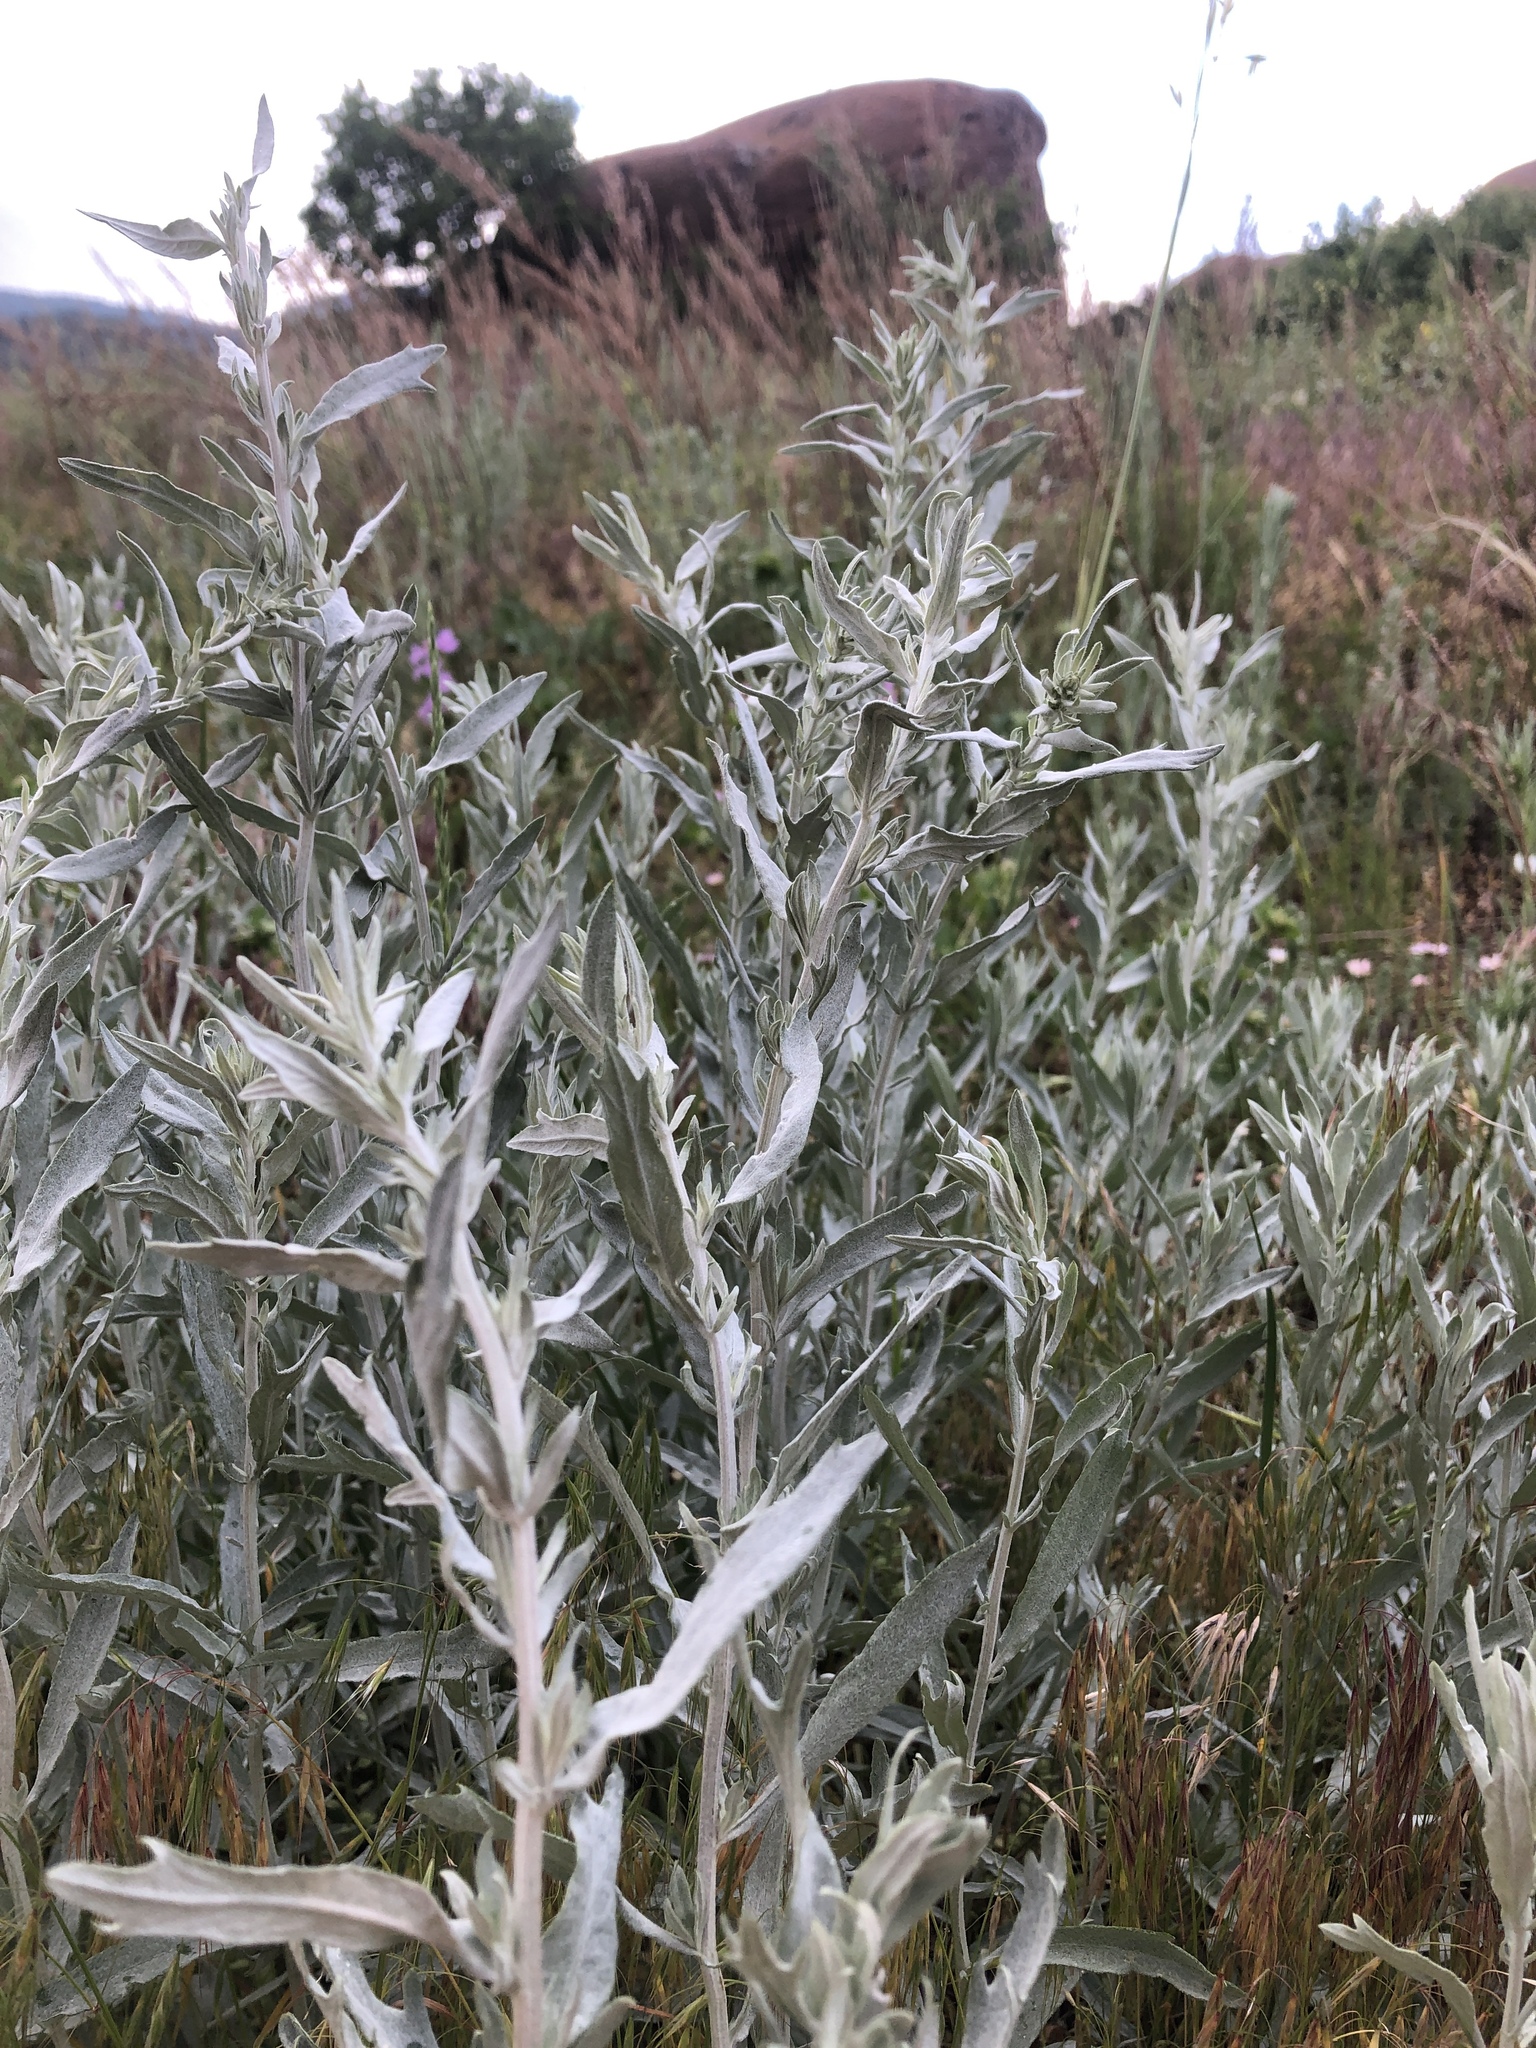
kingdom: Plantae
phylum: Tracheophyta
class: Magnoliopsida
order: Asterales
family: Asteraceae
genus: Artemisia
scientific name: Artemisia ludoviciana
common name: Western mugwort
